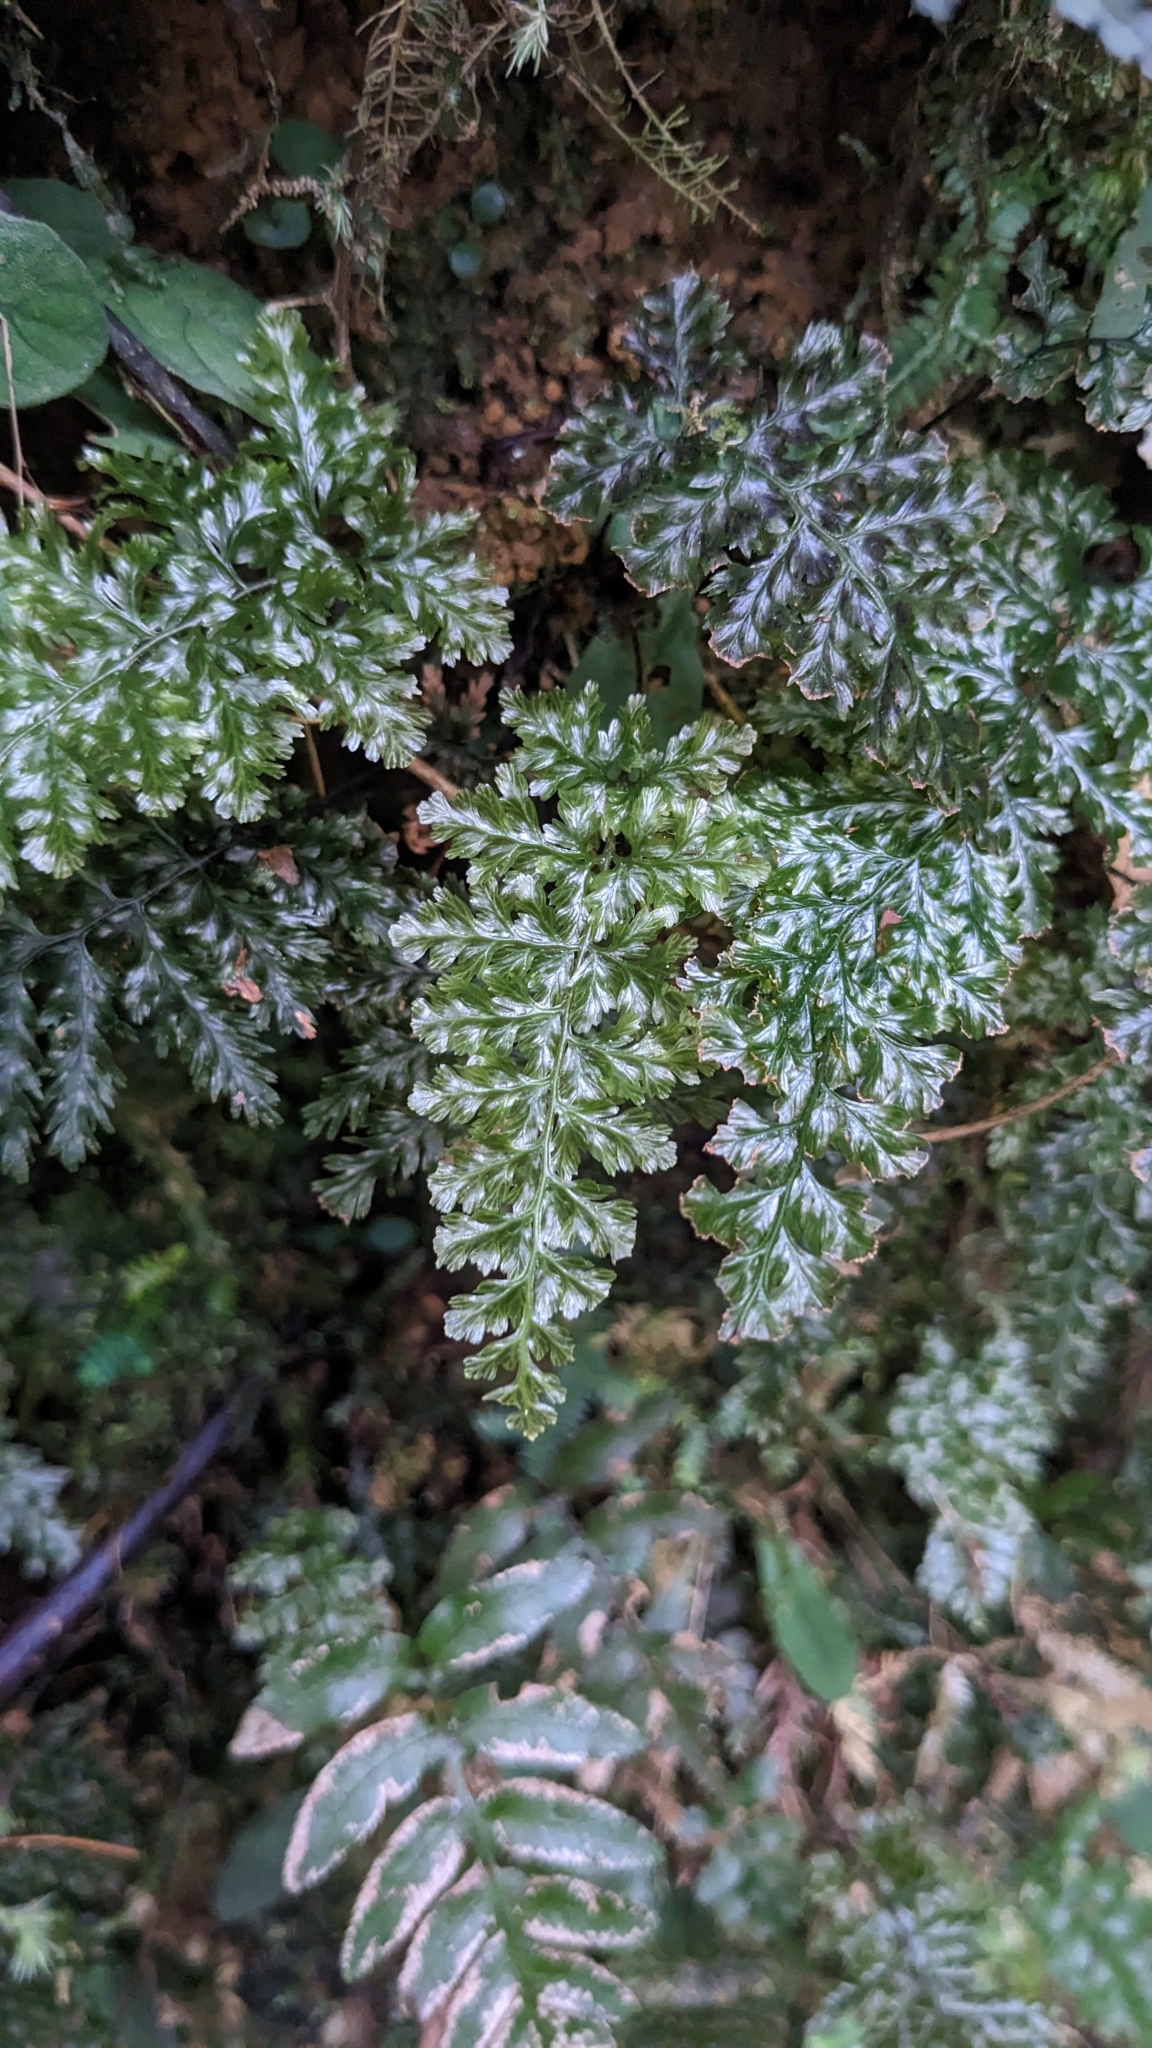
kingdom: Plantae
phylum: Tracheophyta
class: Polypodiopsida
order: Hymenophyllales
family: Hymenophyllaceae
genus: Abrodictyum
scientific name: Abrodictyum obscurum
